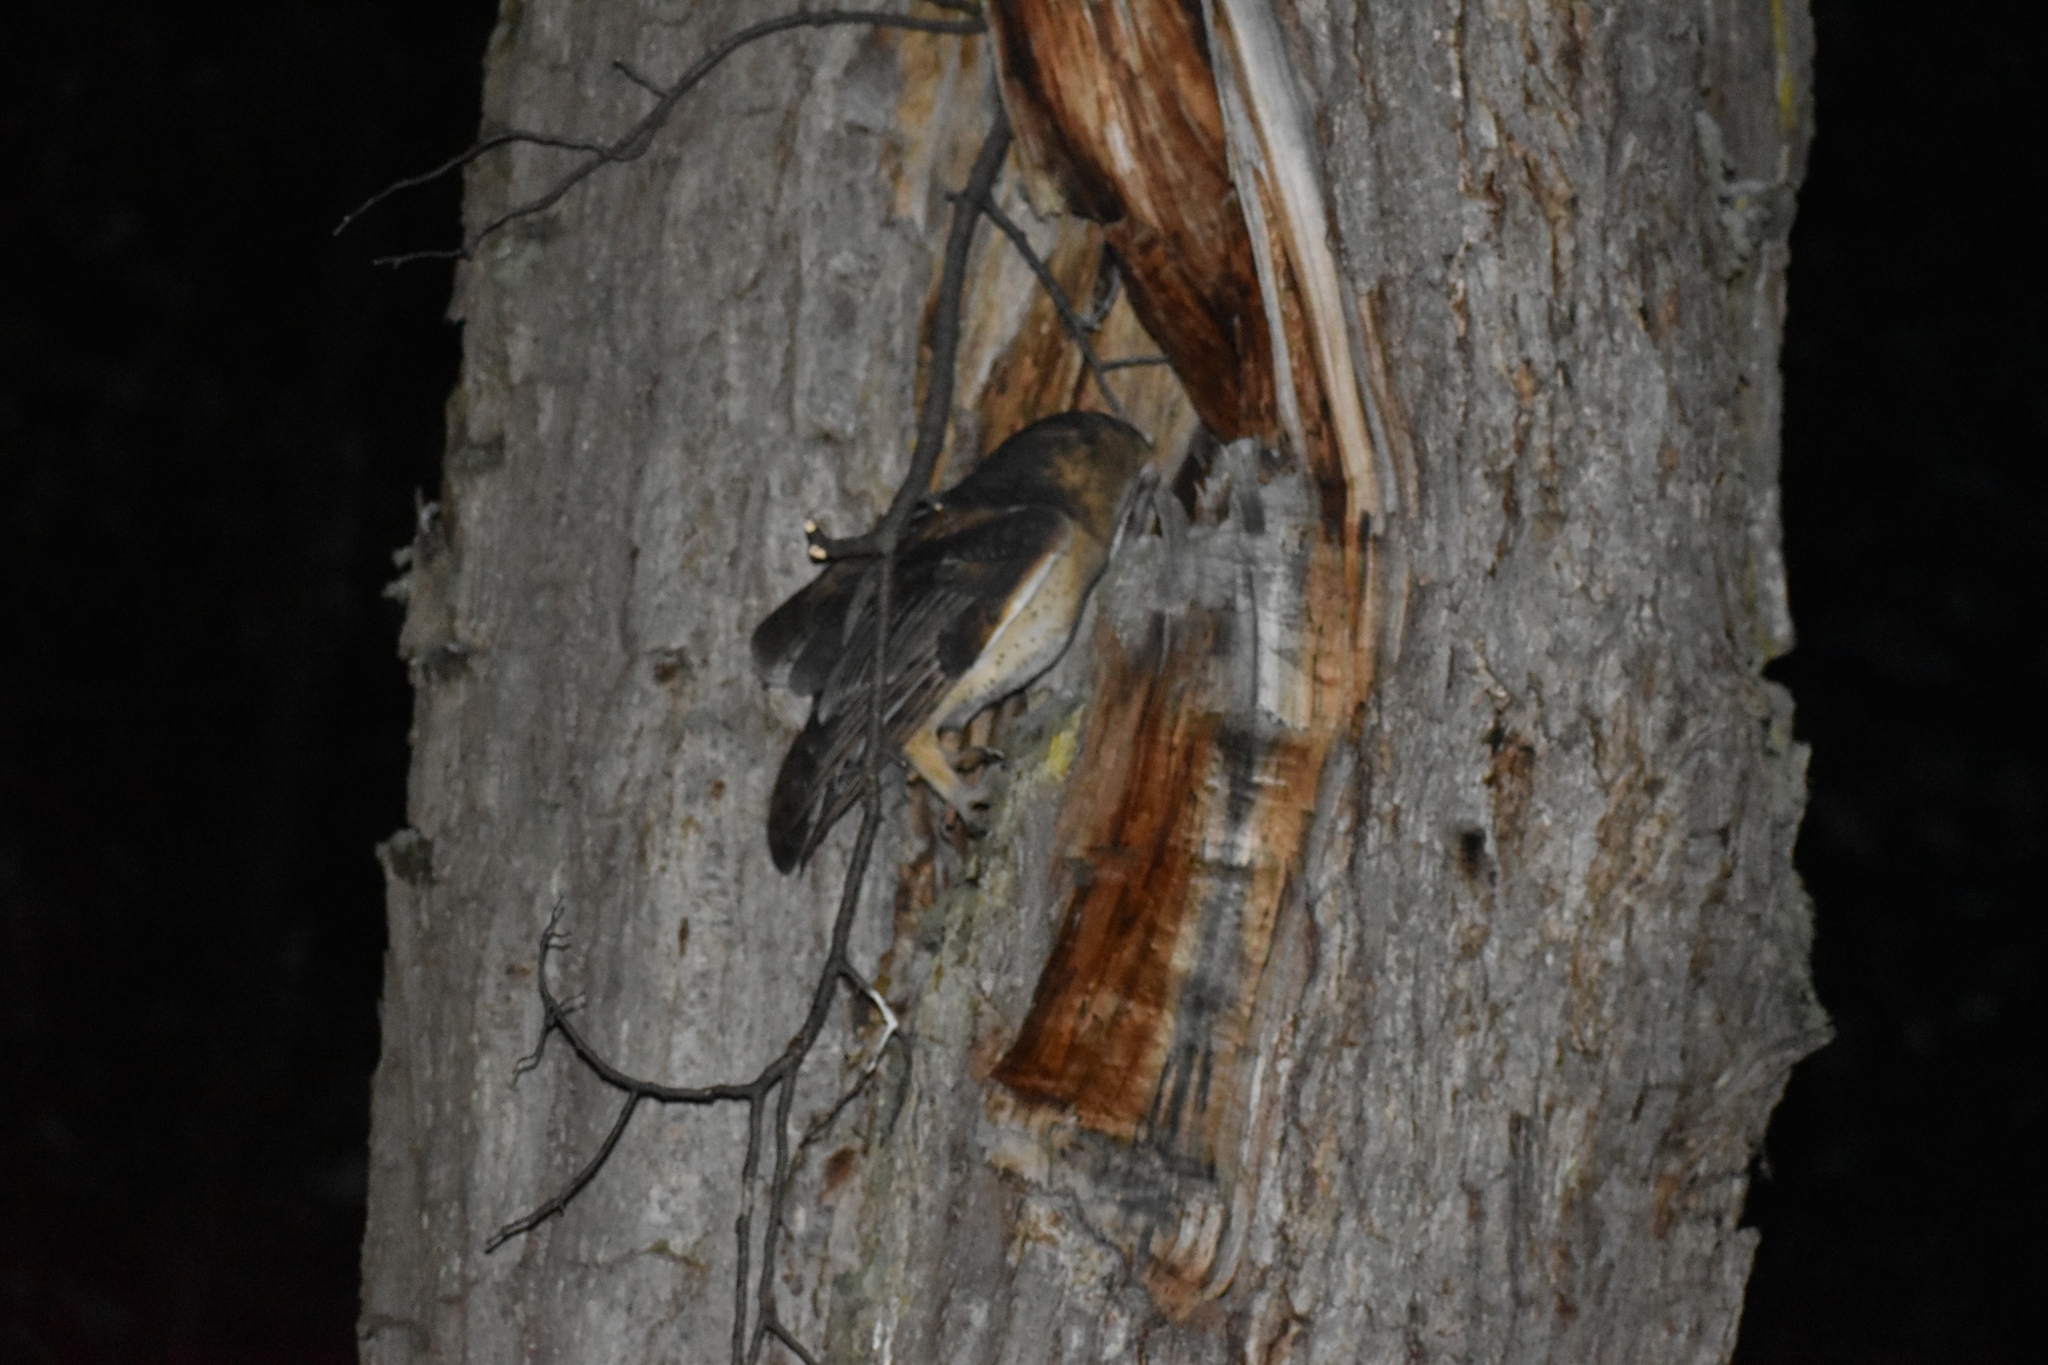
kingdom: Animalia
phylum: Chordata
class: Aves
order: Strigiformes
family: Tytonidae
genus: Tyto
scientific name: Tyto alba
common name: Barn owl
